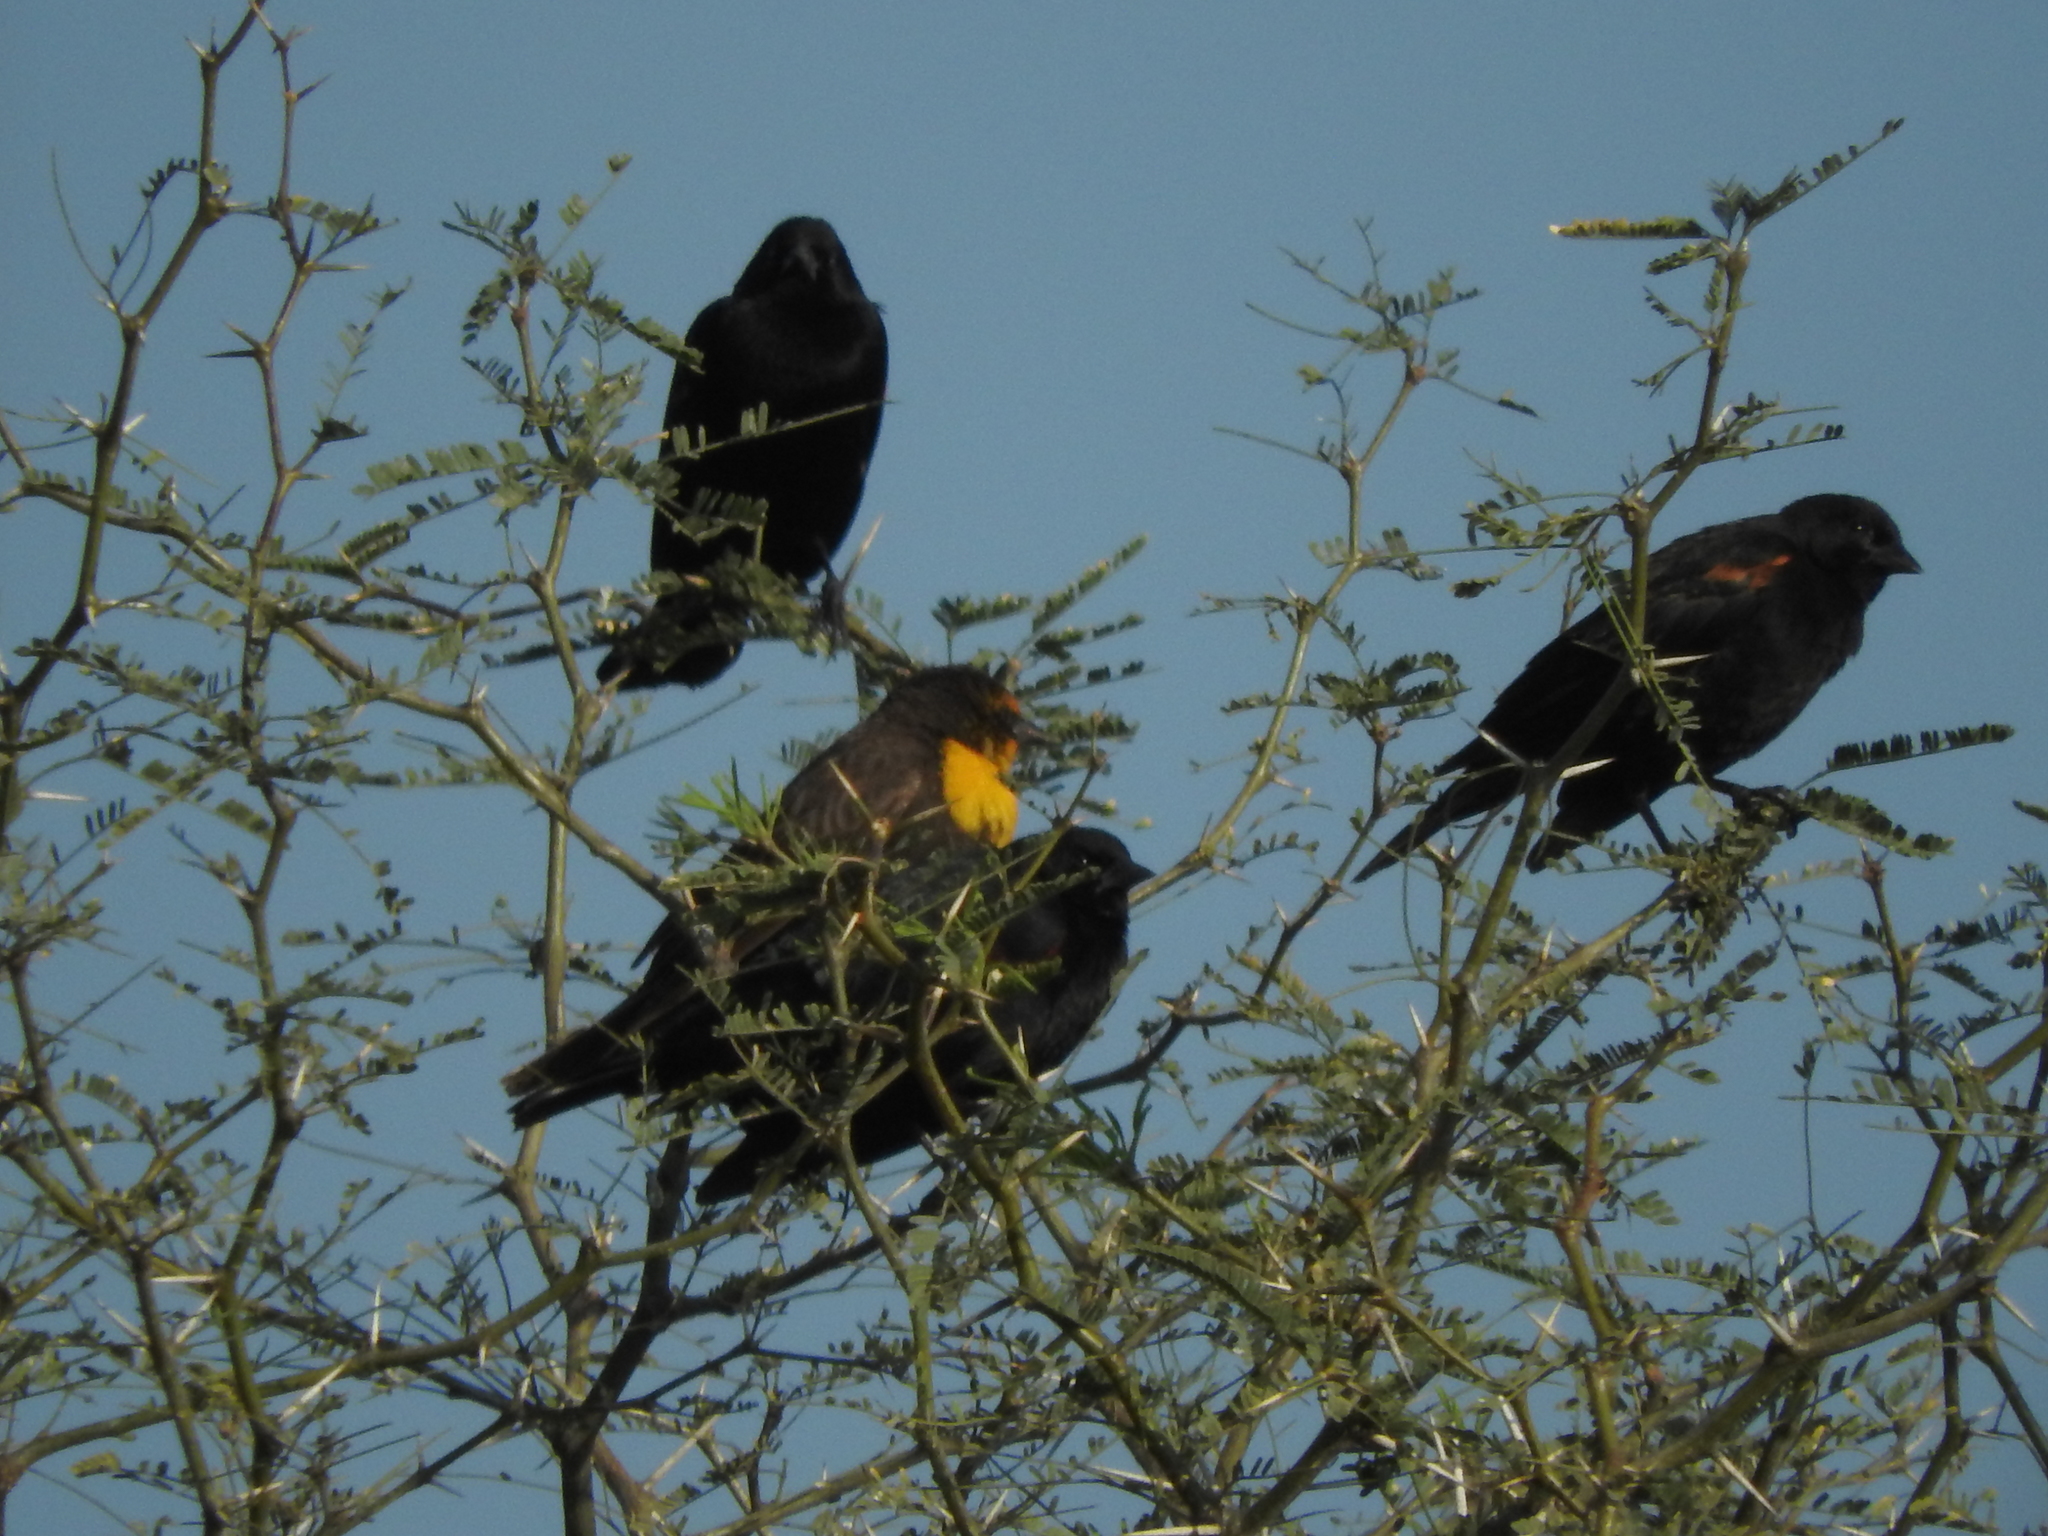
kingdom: Animalia
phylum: Chordata
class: Aves
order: Passeriformes
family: Icteridae
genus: Xanthocephalus
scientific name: Xanthocephalus xanthocephalus
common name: Yellow-headed blackbird
